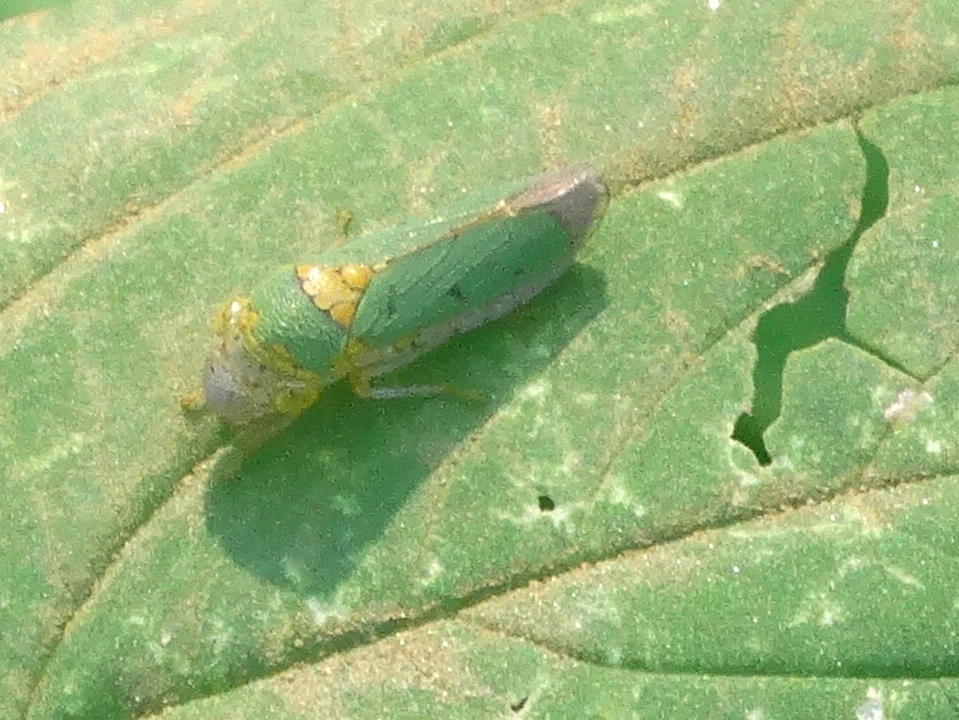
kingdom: Animalia
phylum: Arthropoda
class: Insecta
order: Hemiptera
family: Cicadellidae
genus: Oncometopia
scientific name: Oncometopia
